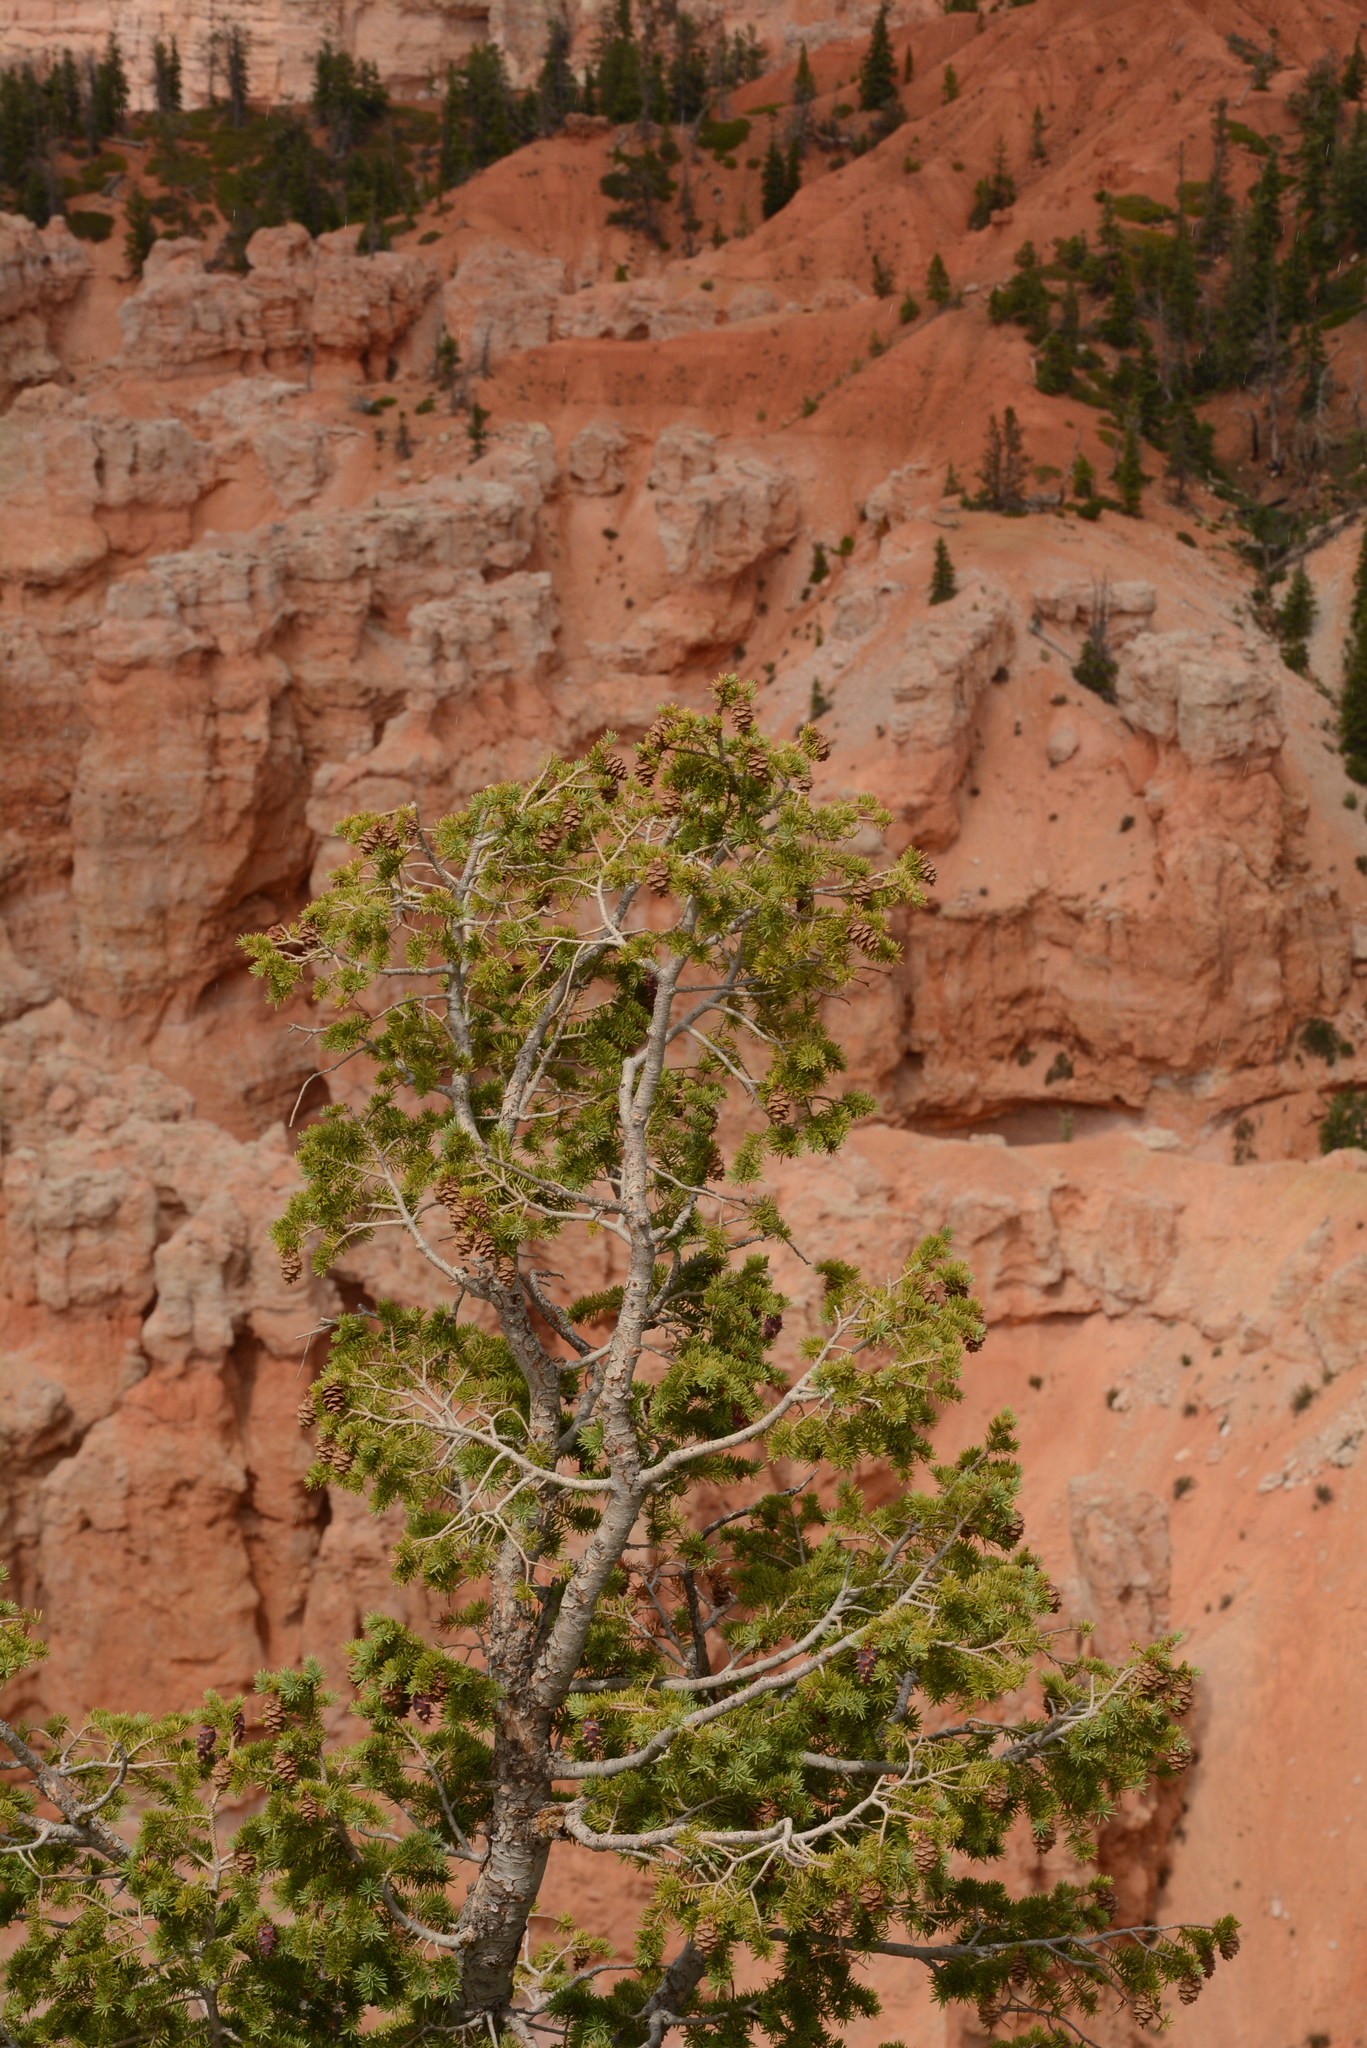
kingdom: Plantae
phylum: Tracheophyta
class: Pinopsida
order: Pinales
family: Pinaceae
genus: Pseudotsuga
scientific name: Pseudotsuga menziesii
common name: Douglas fir
